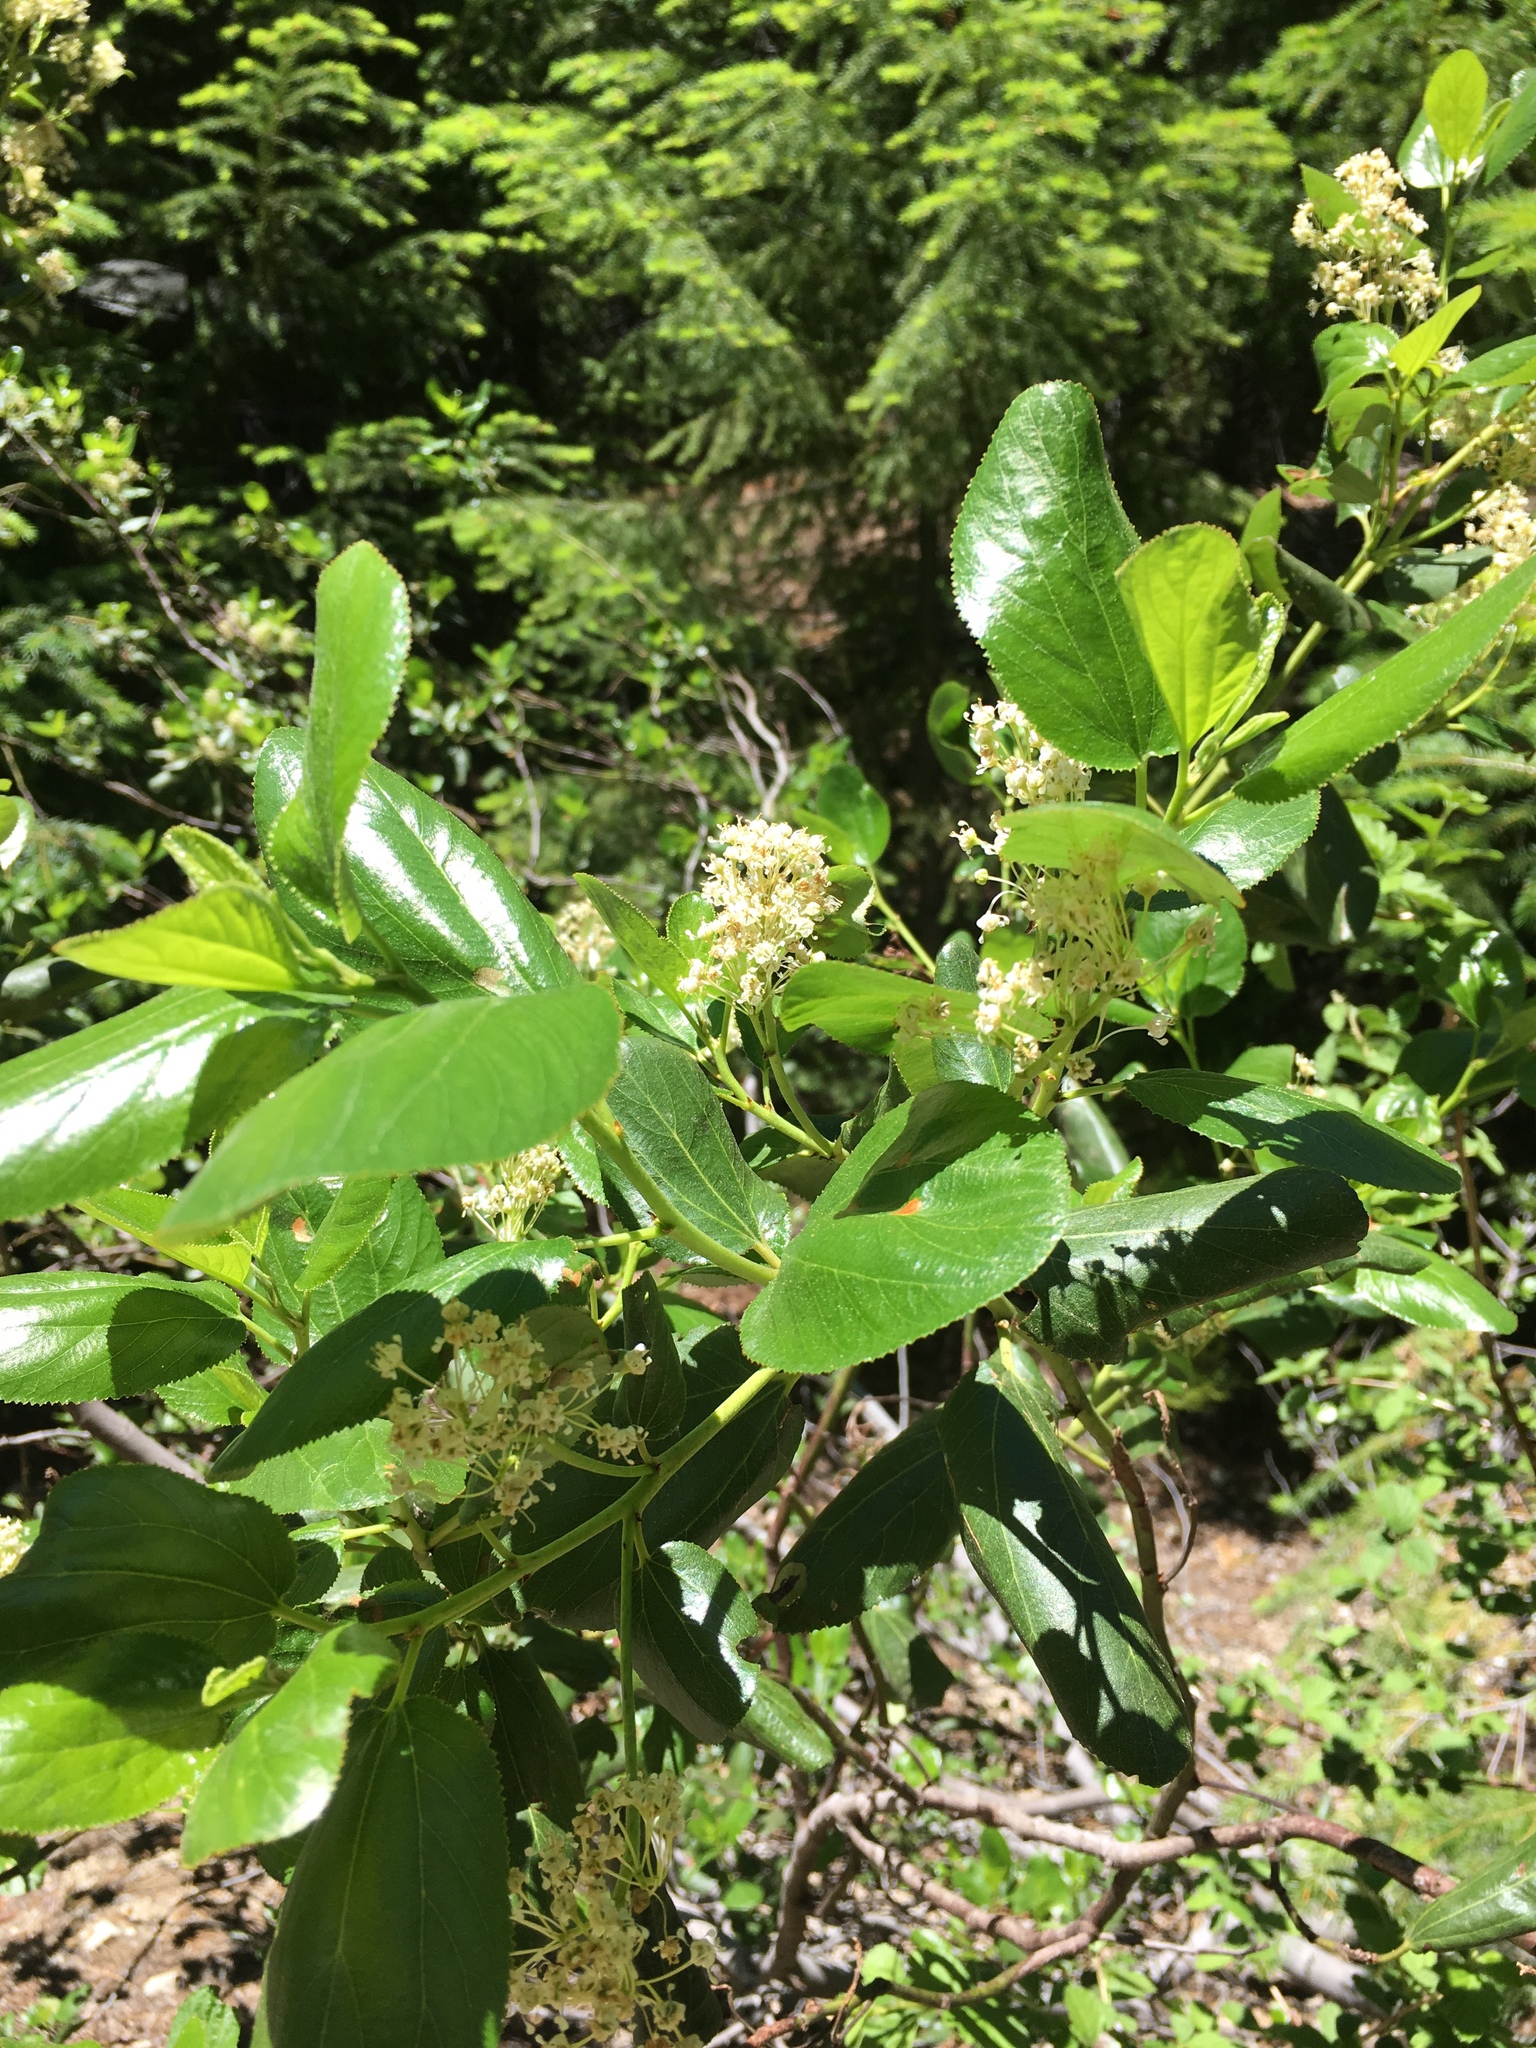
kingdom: Plantae
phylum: Tracheophyta
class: Magnoliopsida
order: Rosales
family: Rhamnaceae
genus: Ceanothus
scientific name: Ceanothus velutinus
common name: Snowbrush
